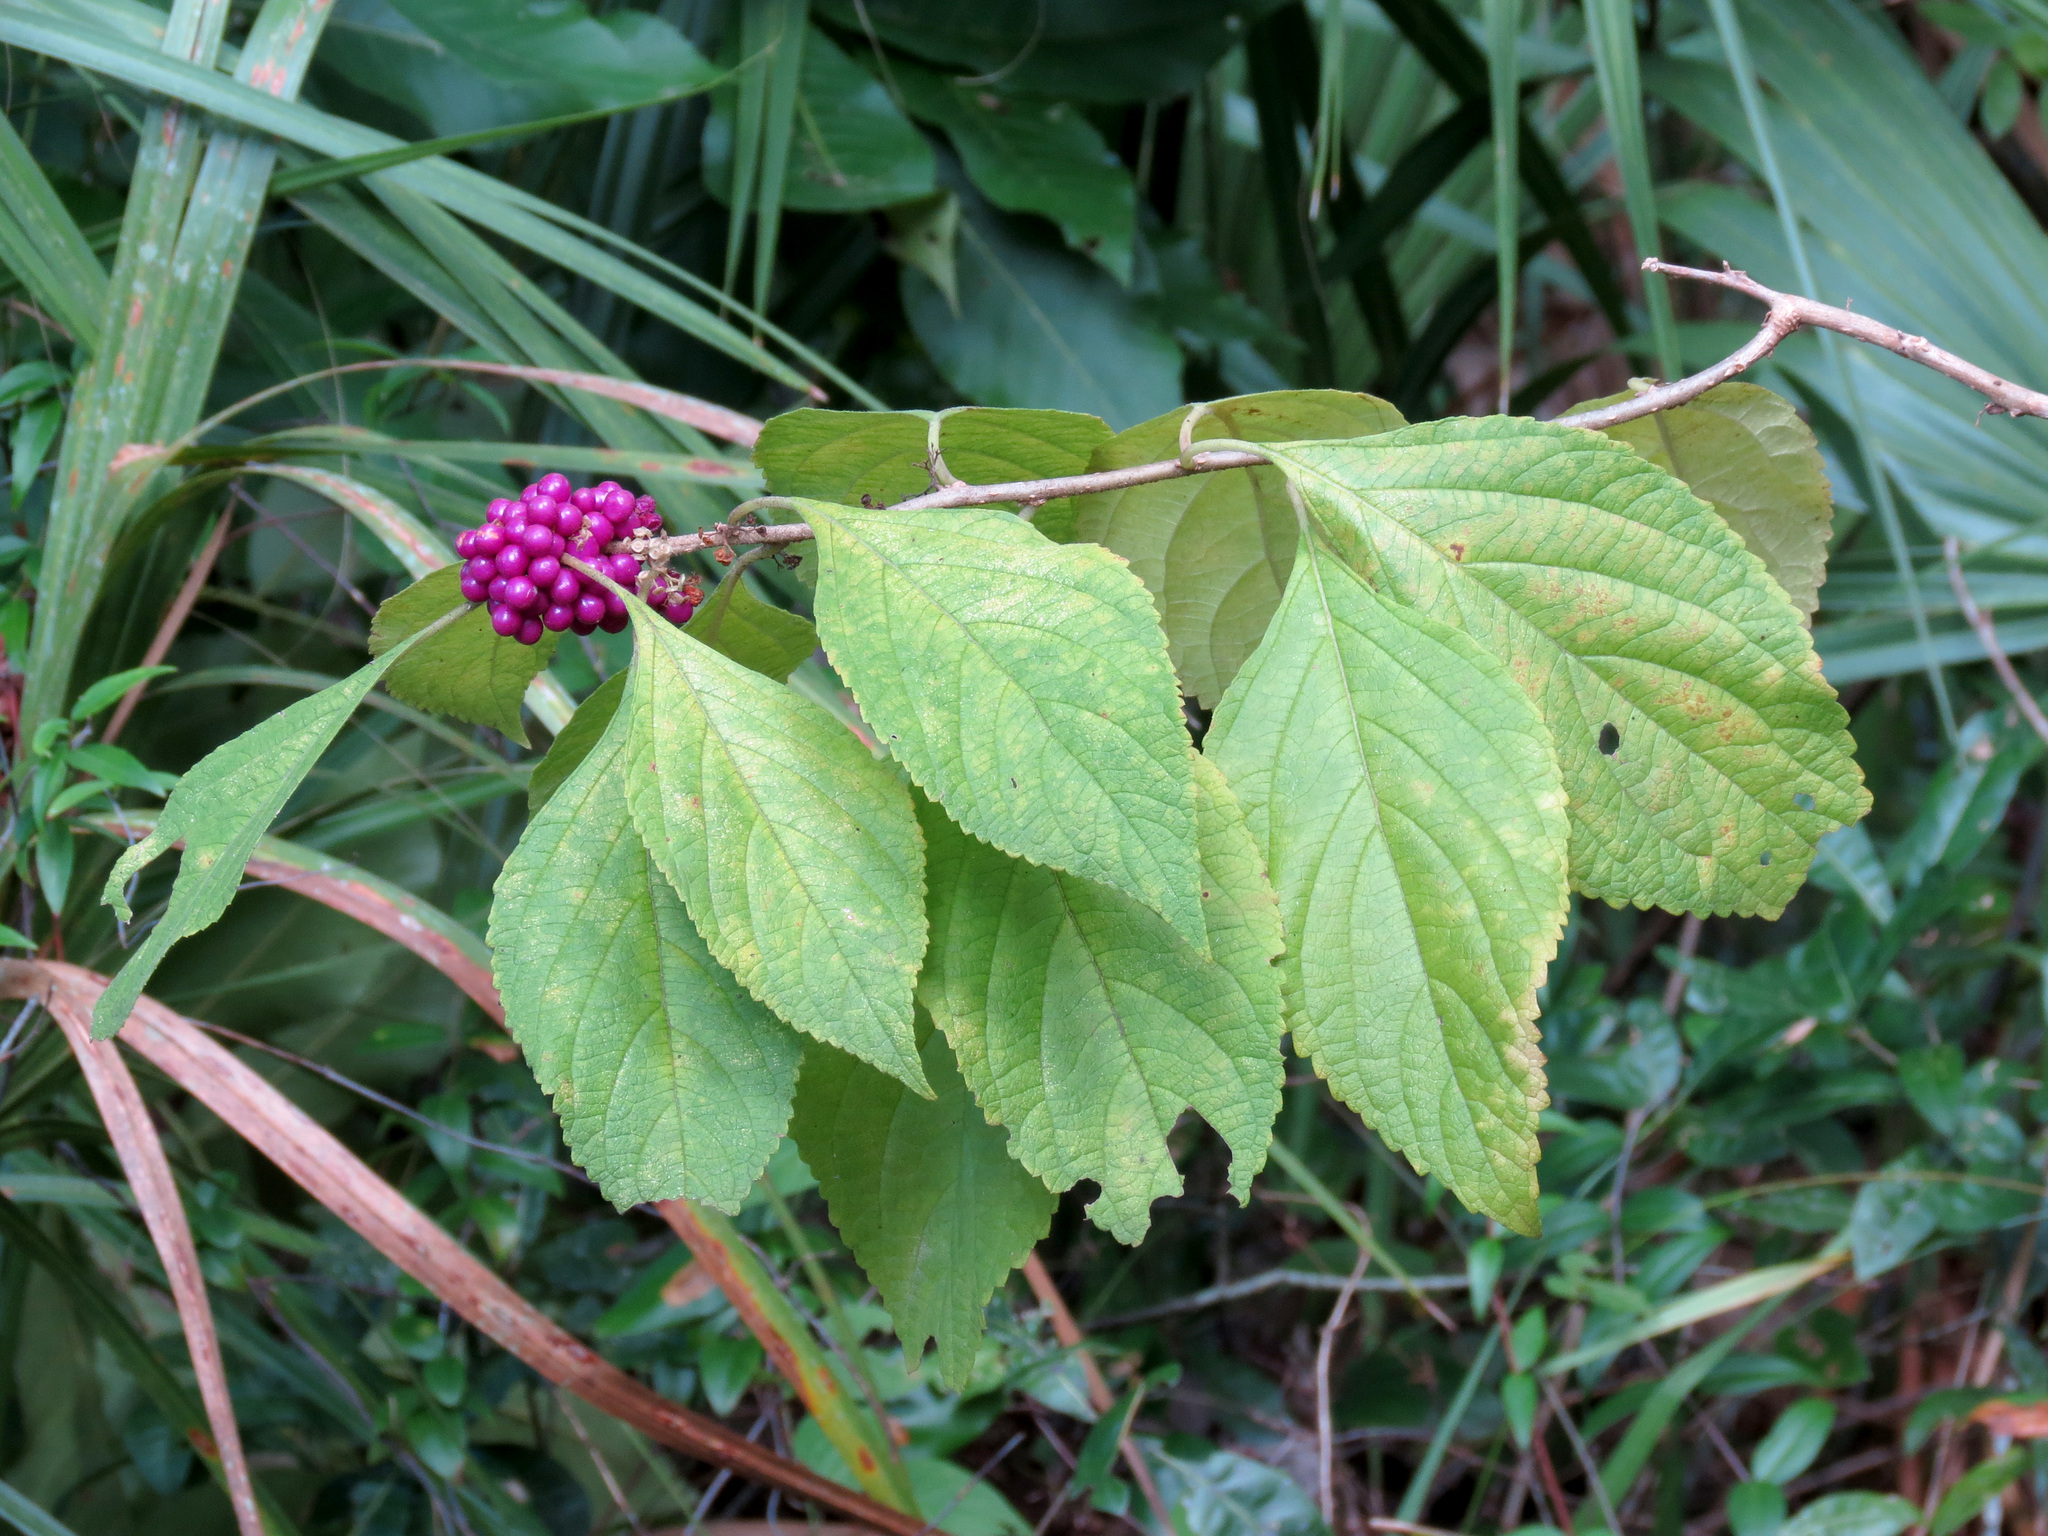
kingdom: Plantae
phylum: Tracheophyta
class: Magnoliopsida
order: Lamiales
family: Lamiaceae
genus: Callicarpa
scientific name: Callicarpa americana
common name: American beautyberry
